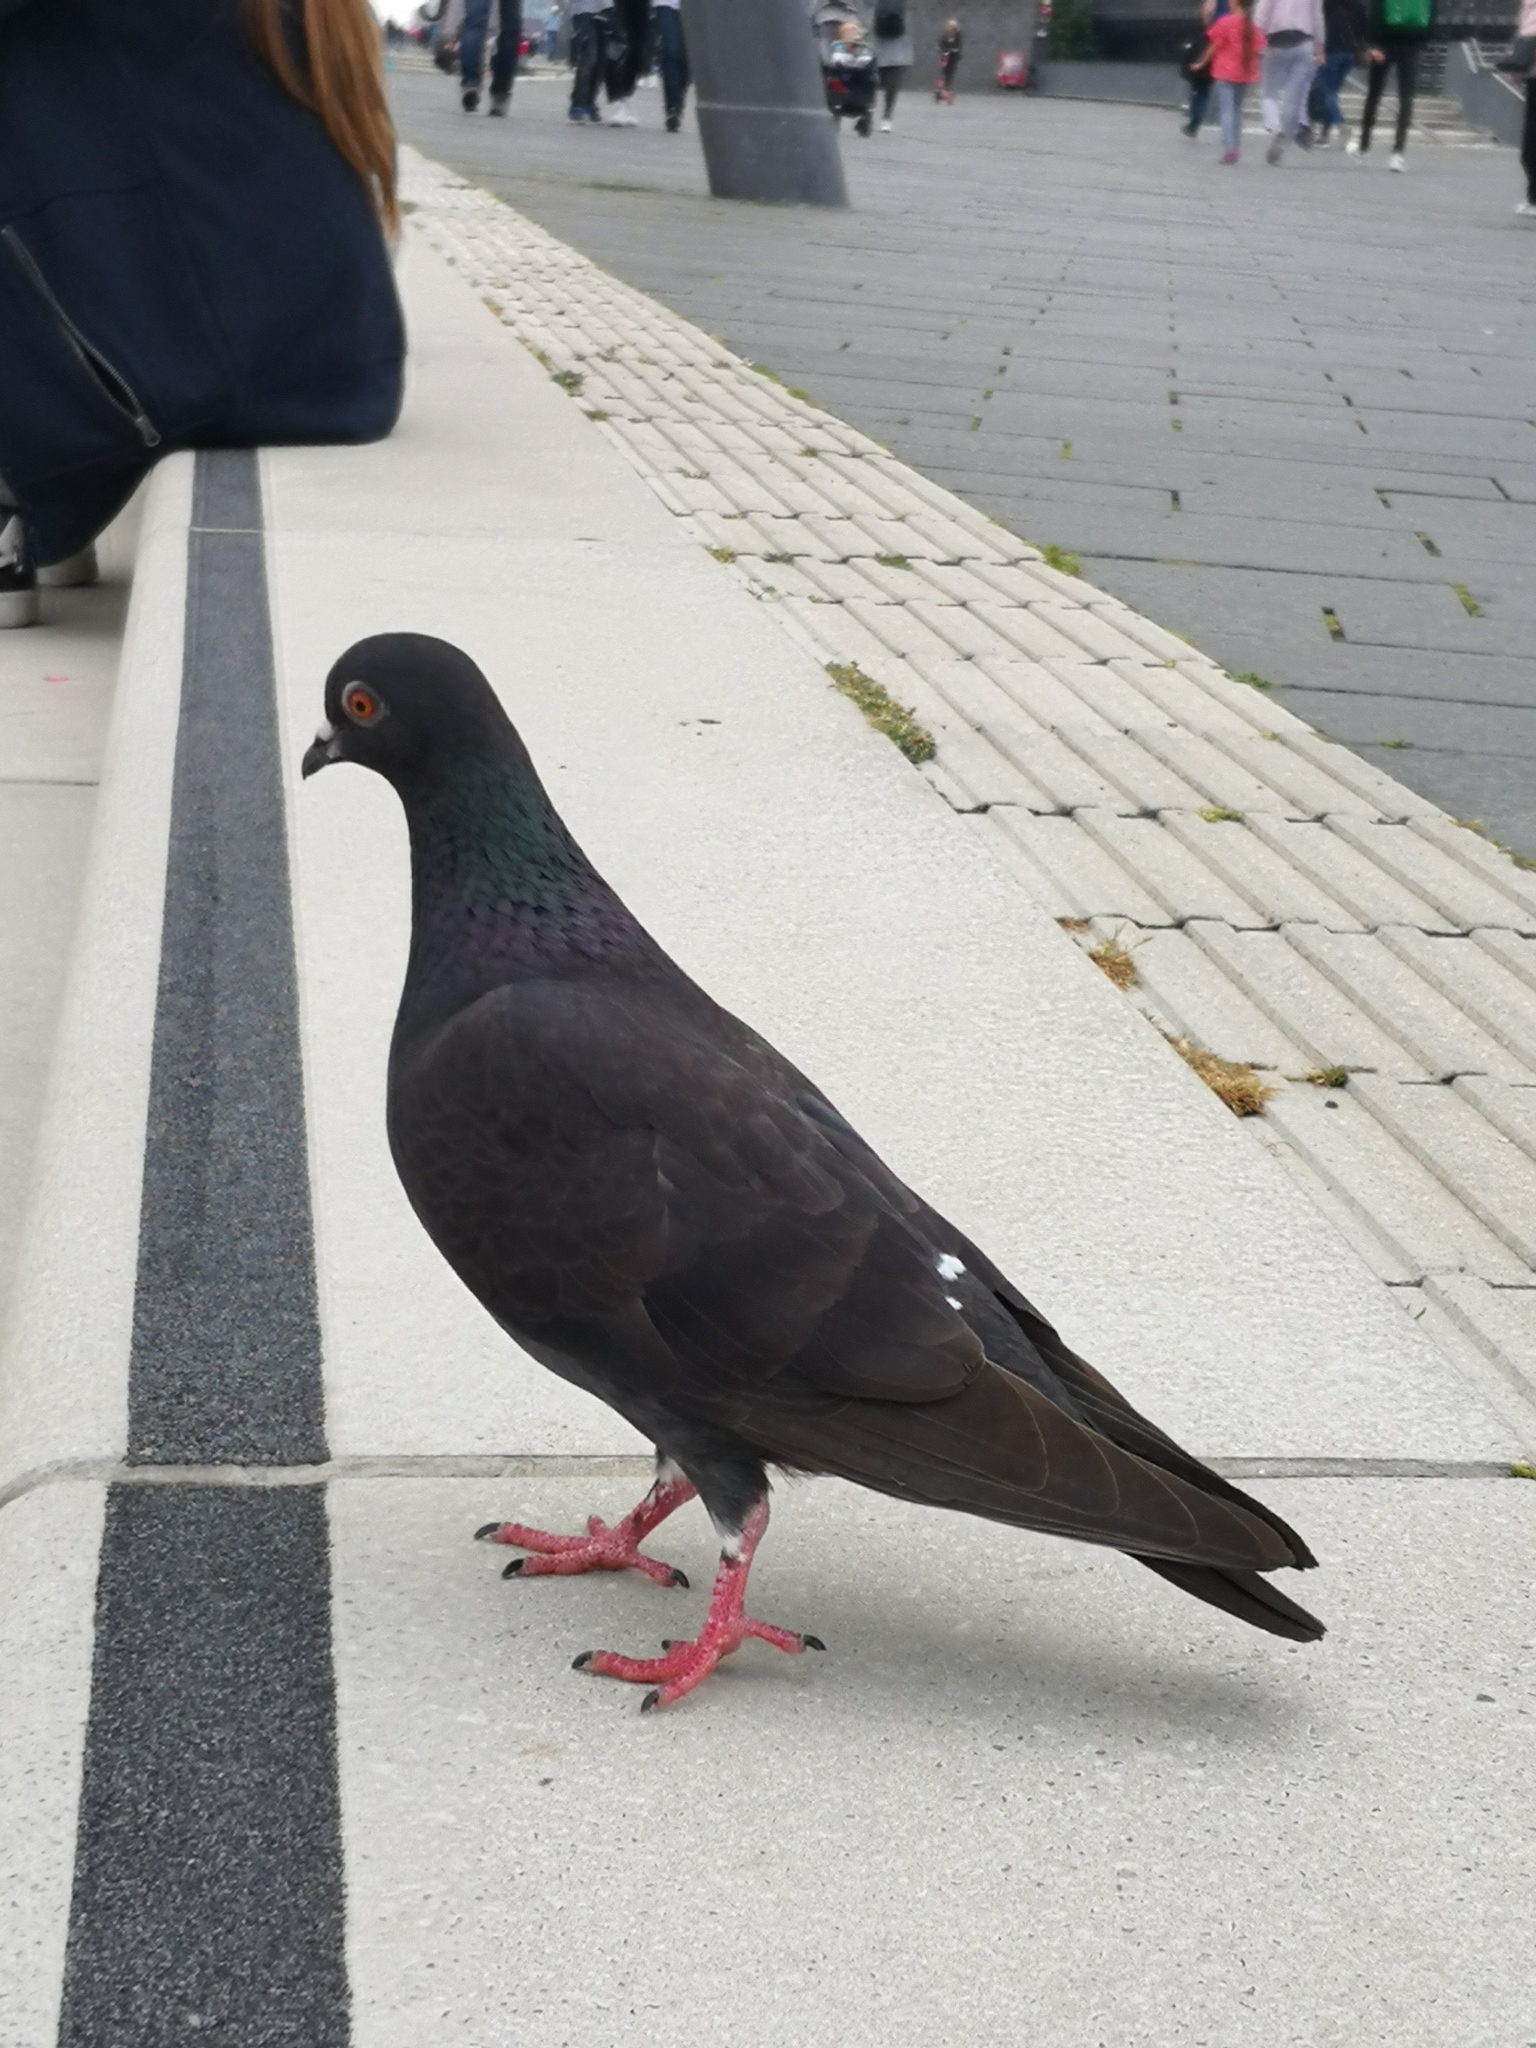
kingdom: Animalia
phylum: Chordata
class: Aves
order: Columbiformes
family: Columbidae
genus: Columba
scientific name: Columba livia
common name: Rock pigeon
